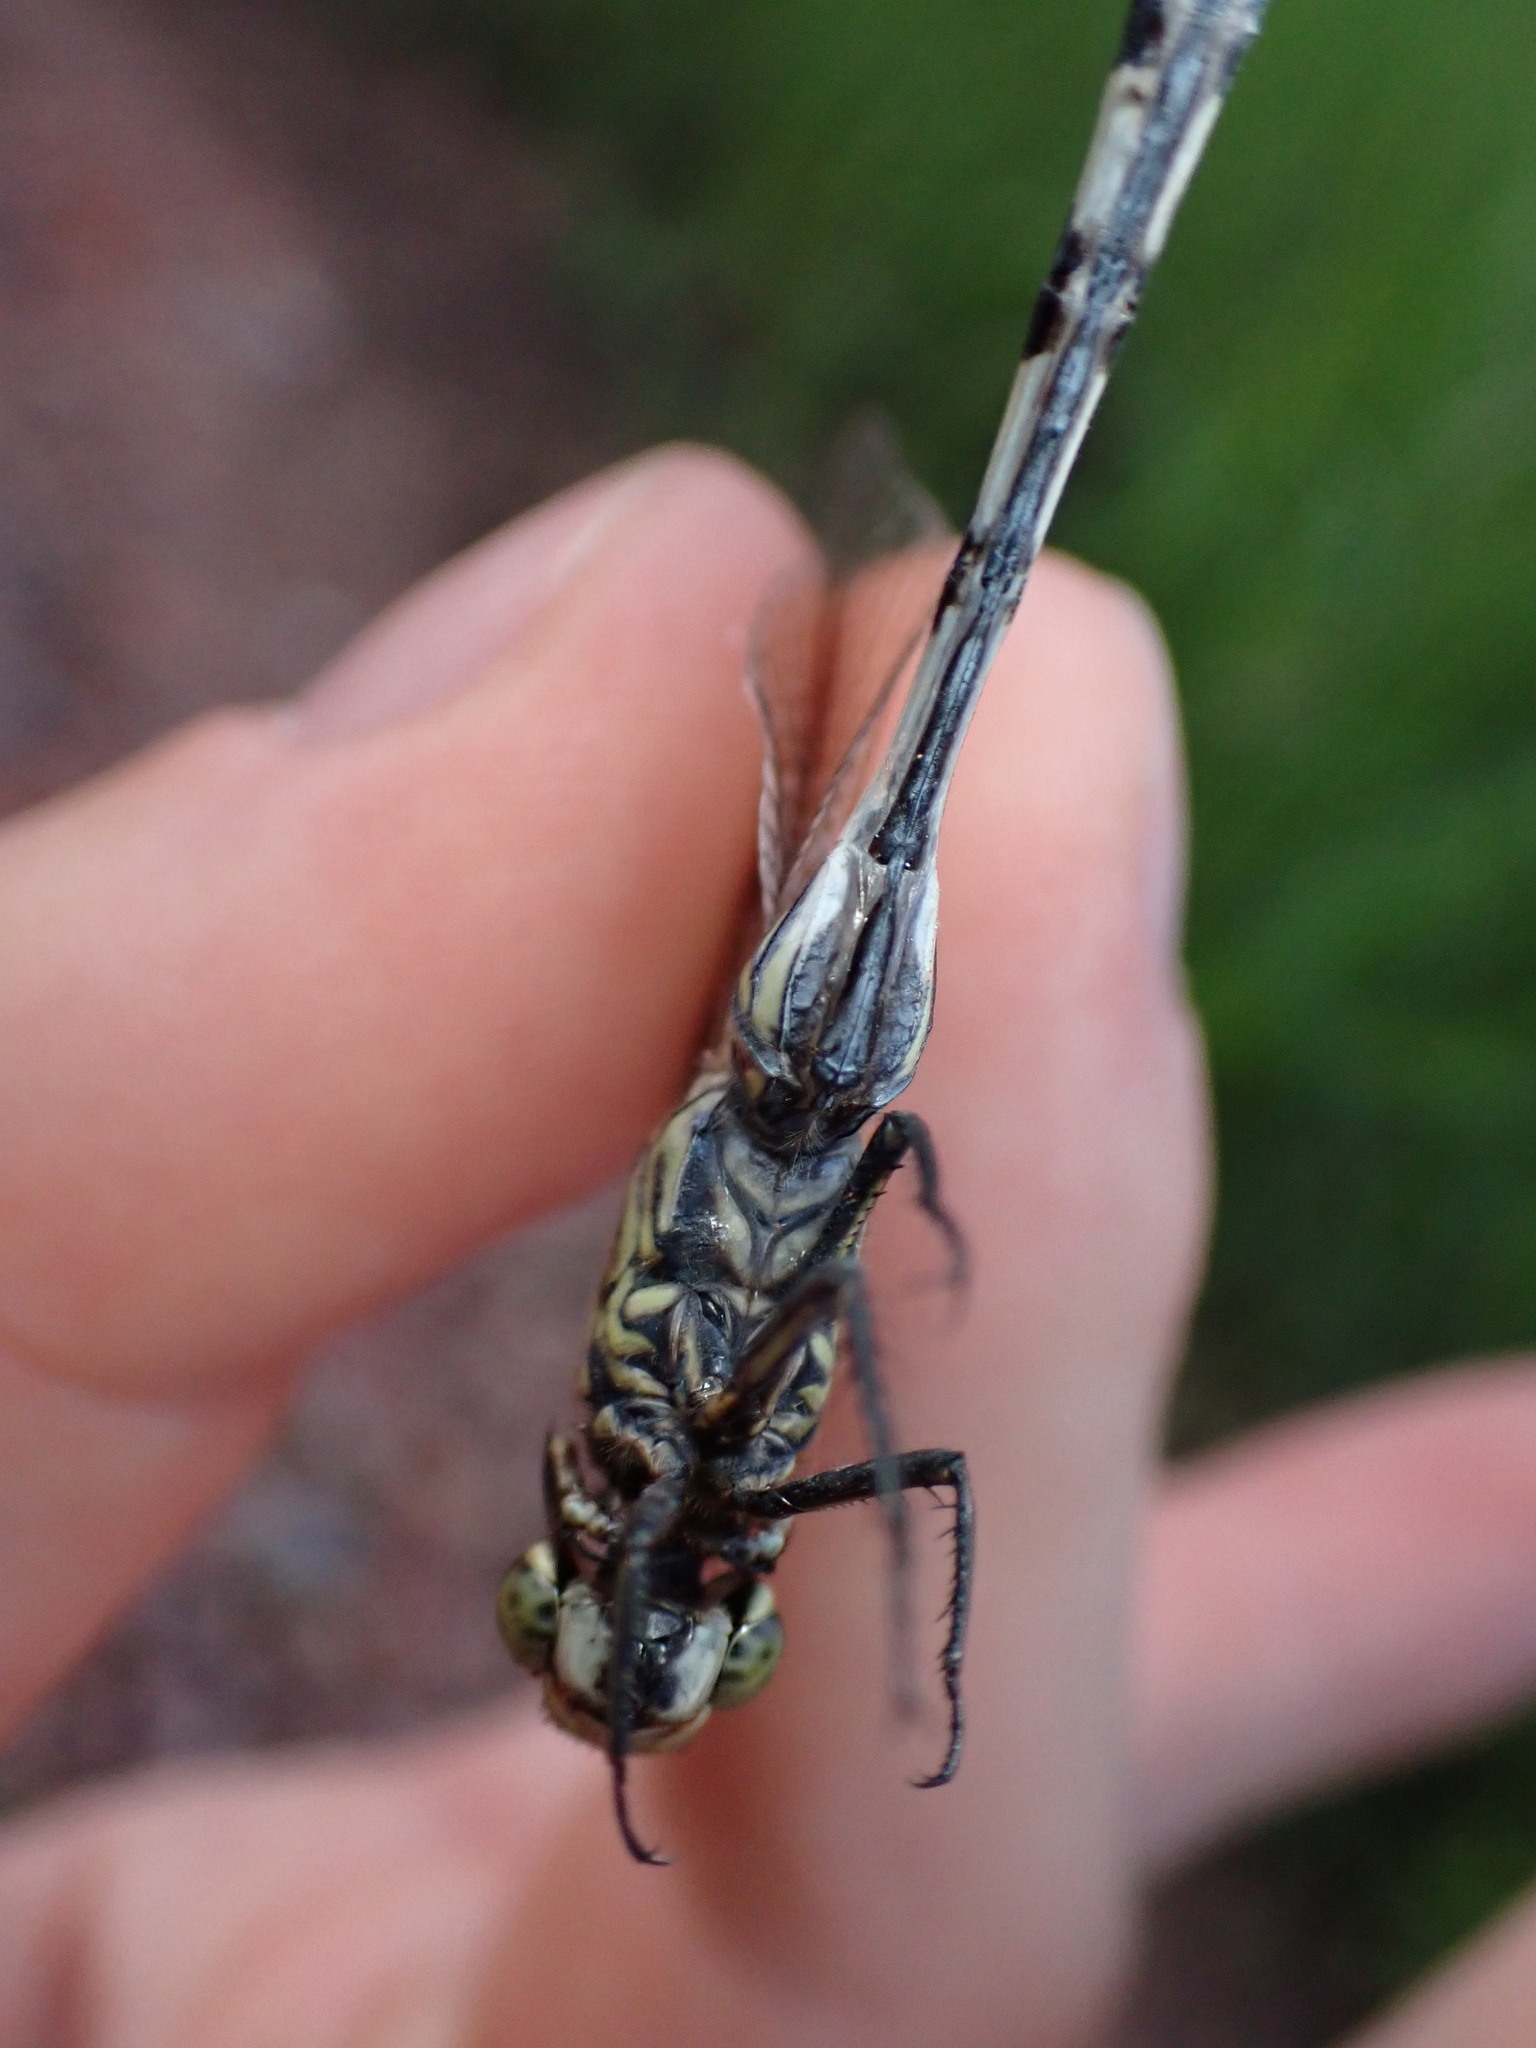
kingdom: Animalia
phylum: Arthropoda
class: Insecta
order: Odonata
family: Libellulidae
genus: Orthetrum
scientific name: Orthetrum sabina
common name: Slender skimmer
